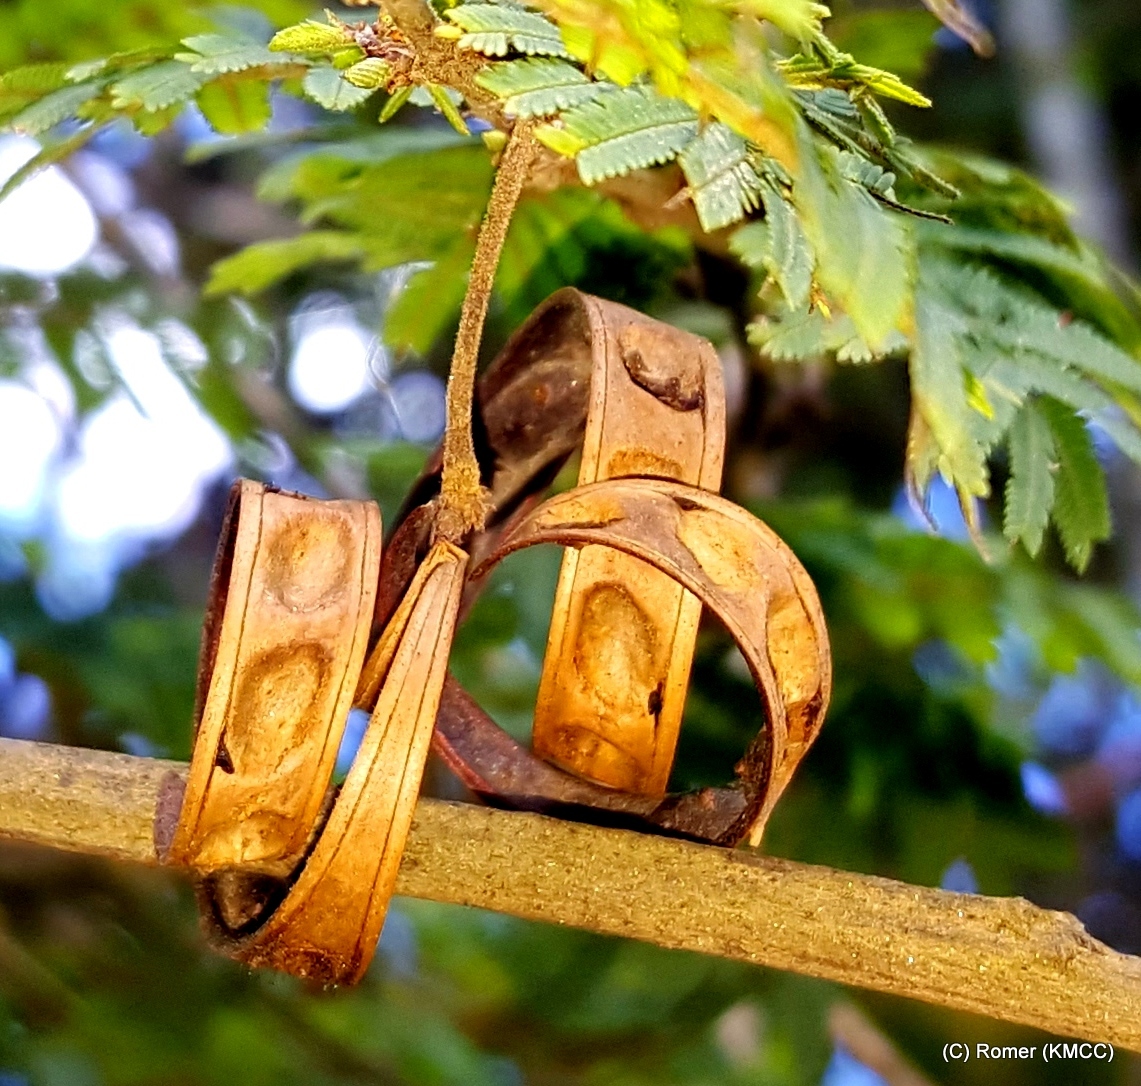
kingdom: Plantae
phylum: Tracheophyta
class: Magnoliopsida
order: Fabales
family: Fabaceae
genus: Dichrostachys
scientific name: Dichrostachys tenuifolia
